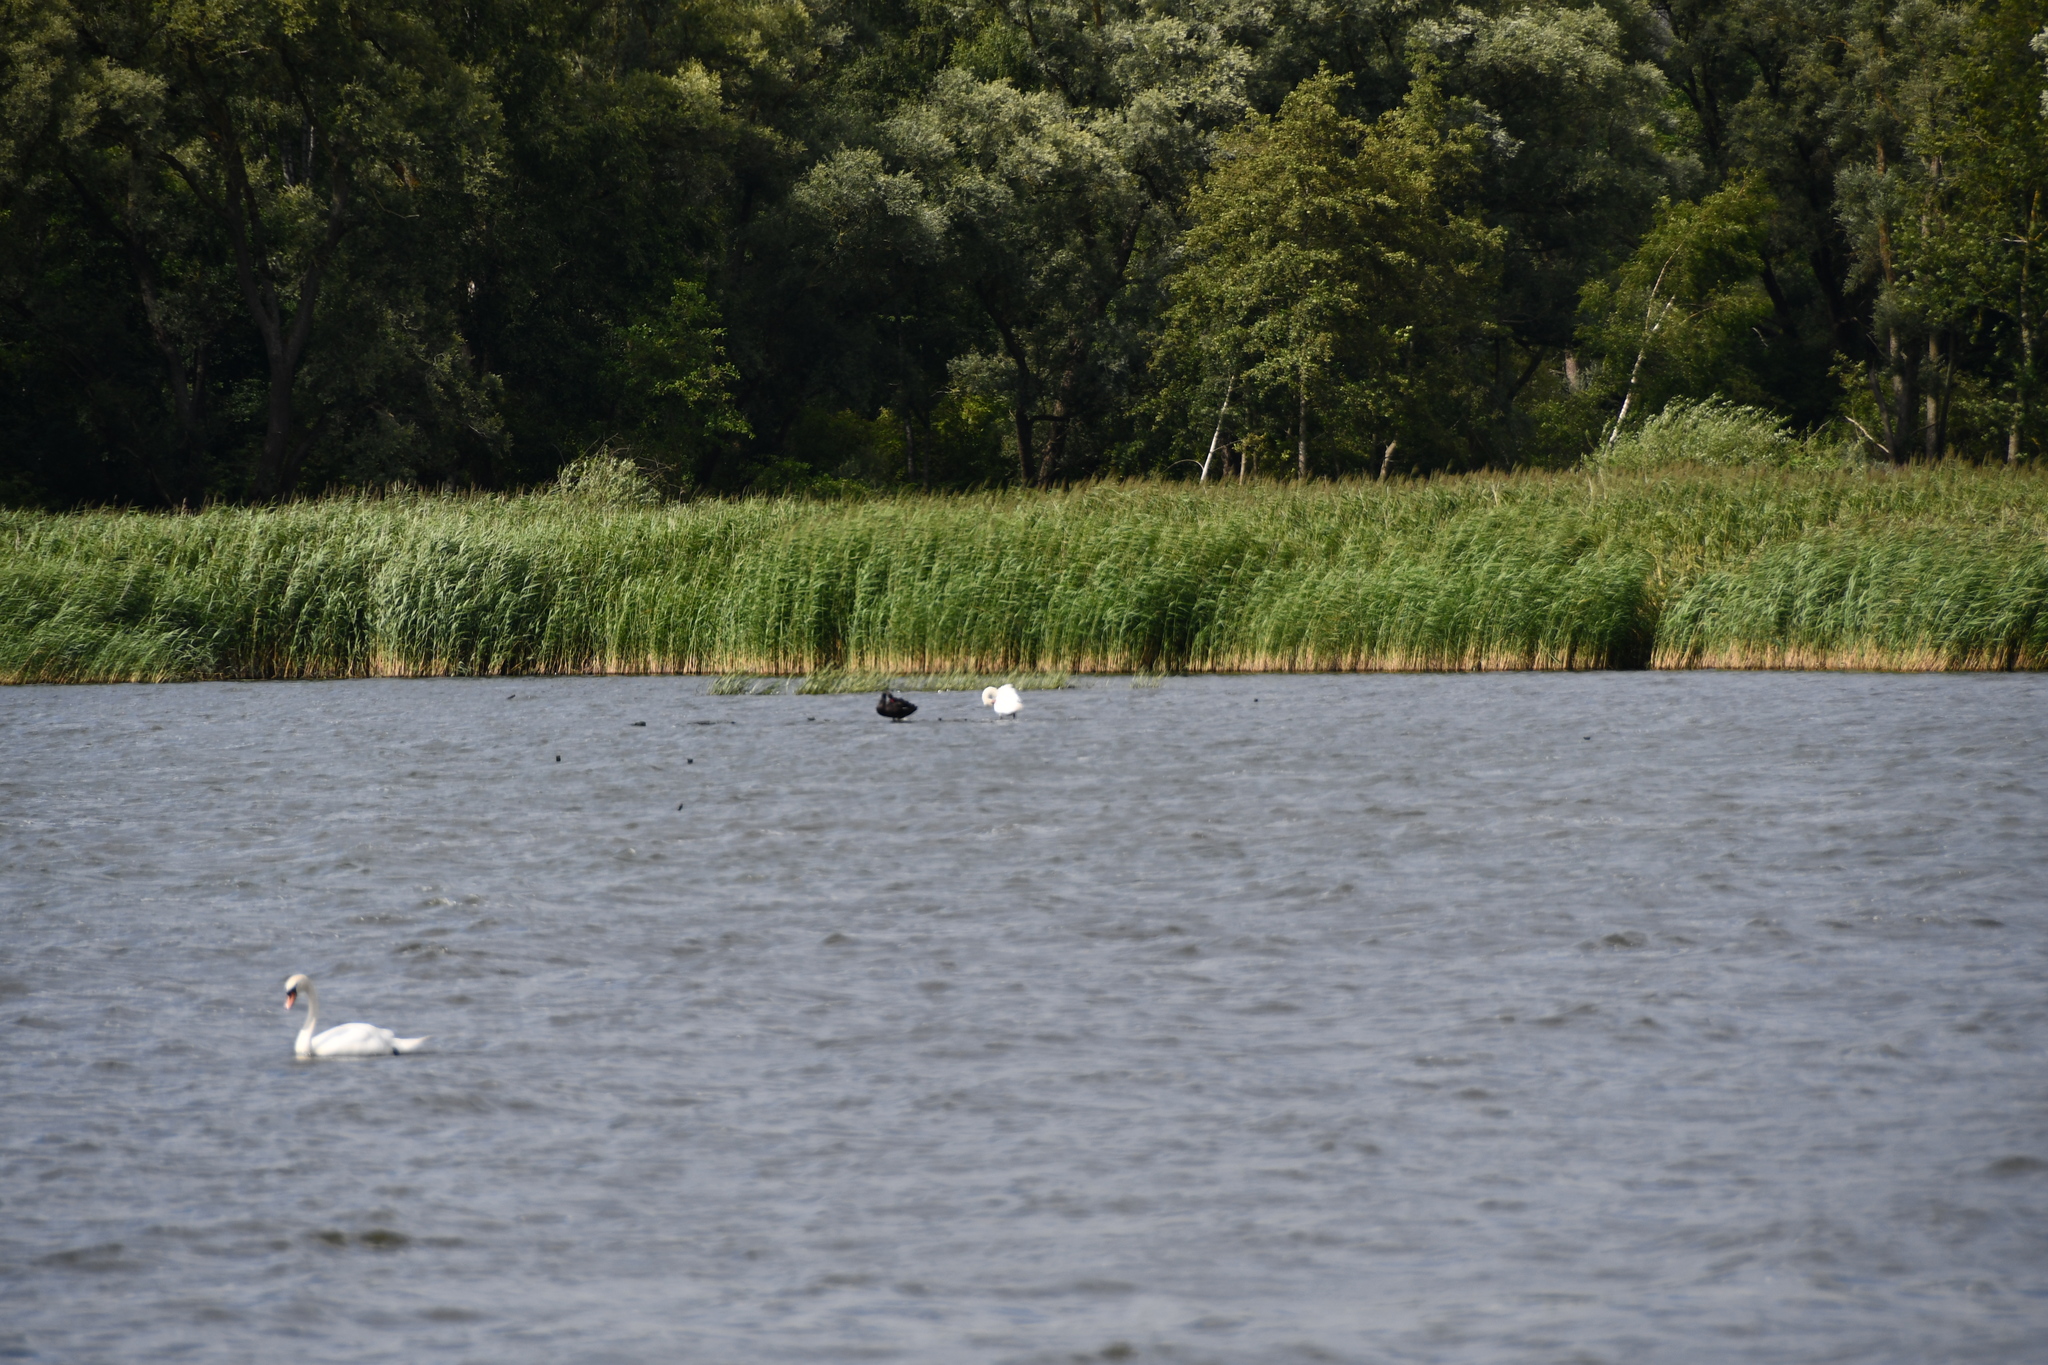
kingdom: Animalia
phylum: Chordata
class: Aves
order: Anseriformes
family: Anatidae
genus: Cygnus
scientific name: Cygnus atratus
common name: Black swan
